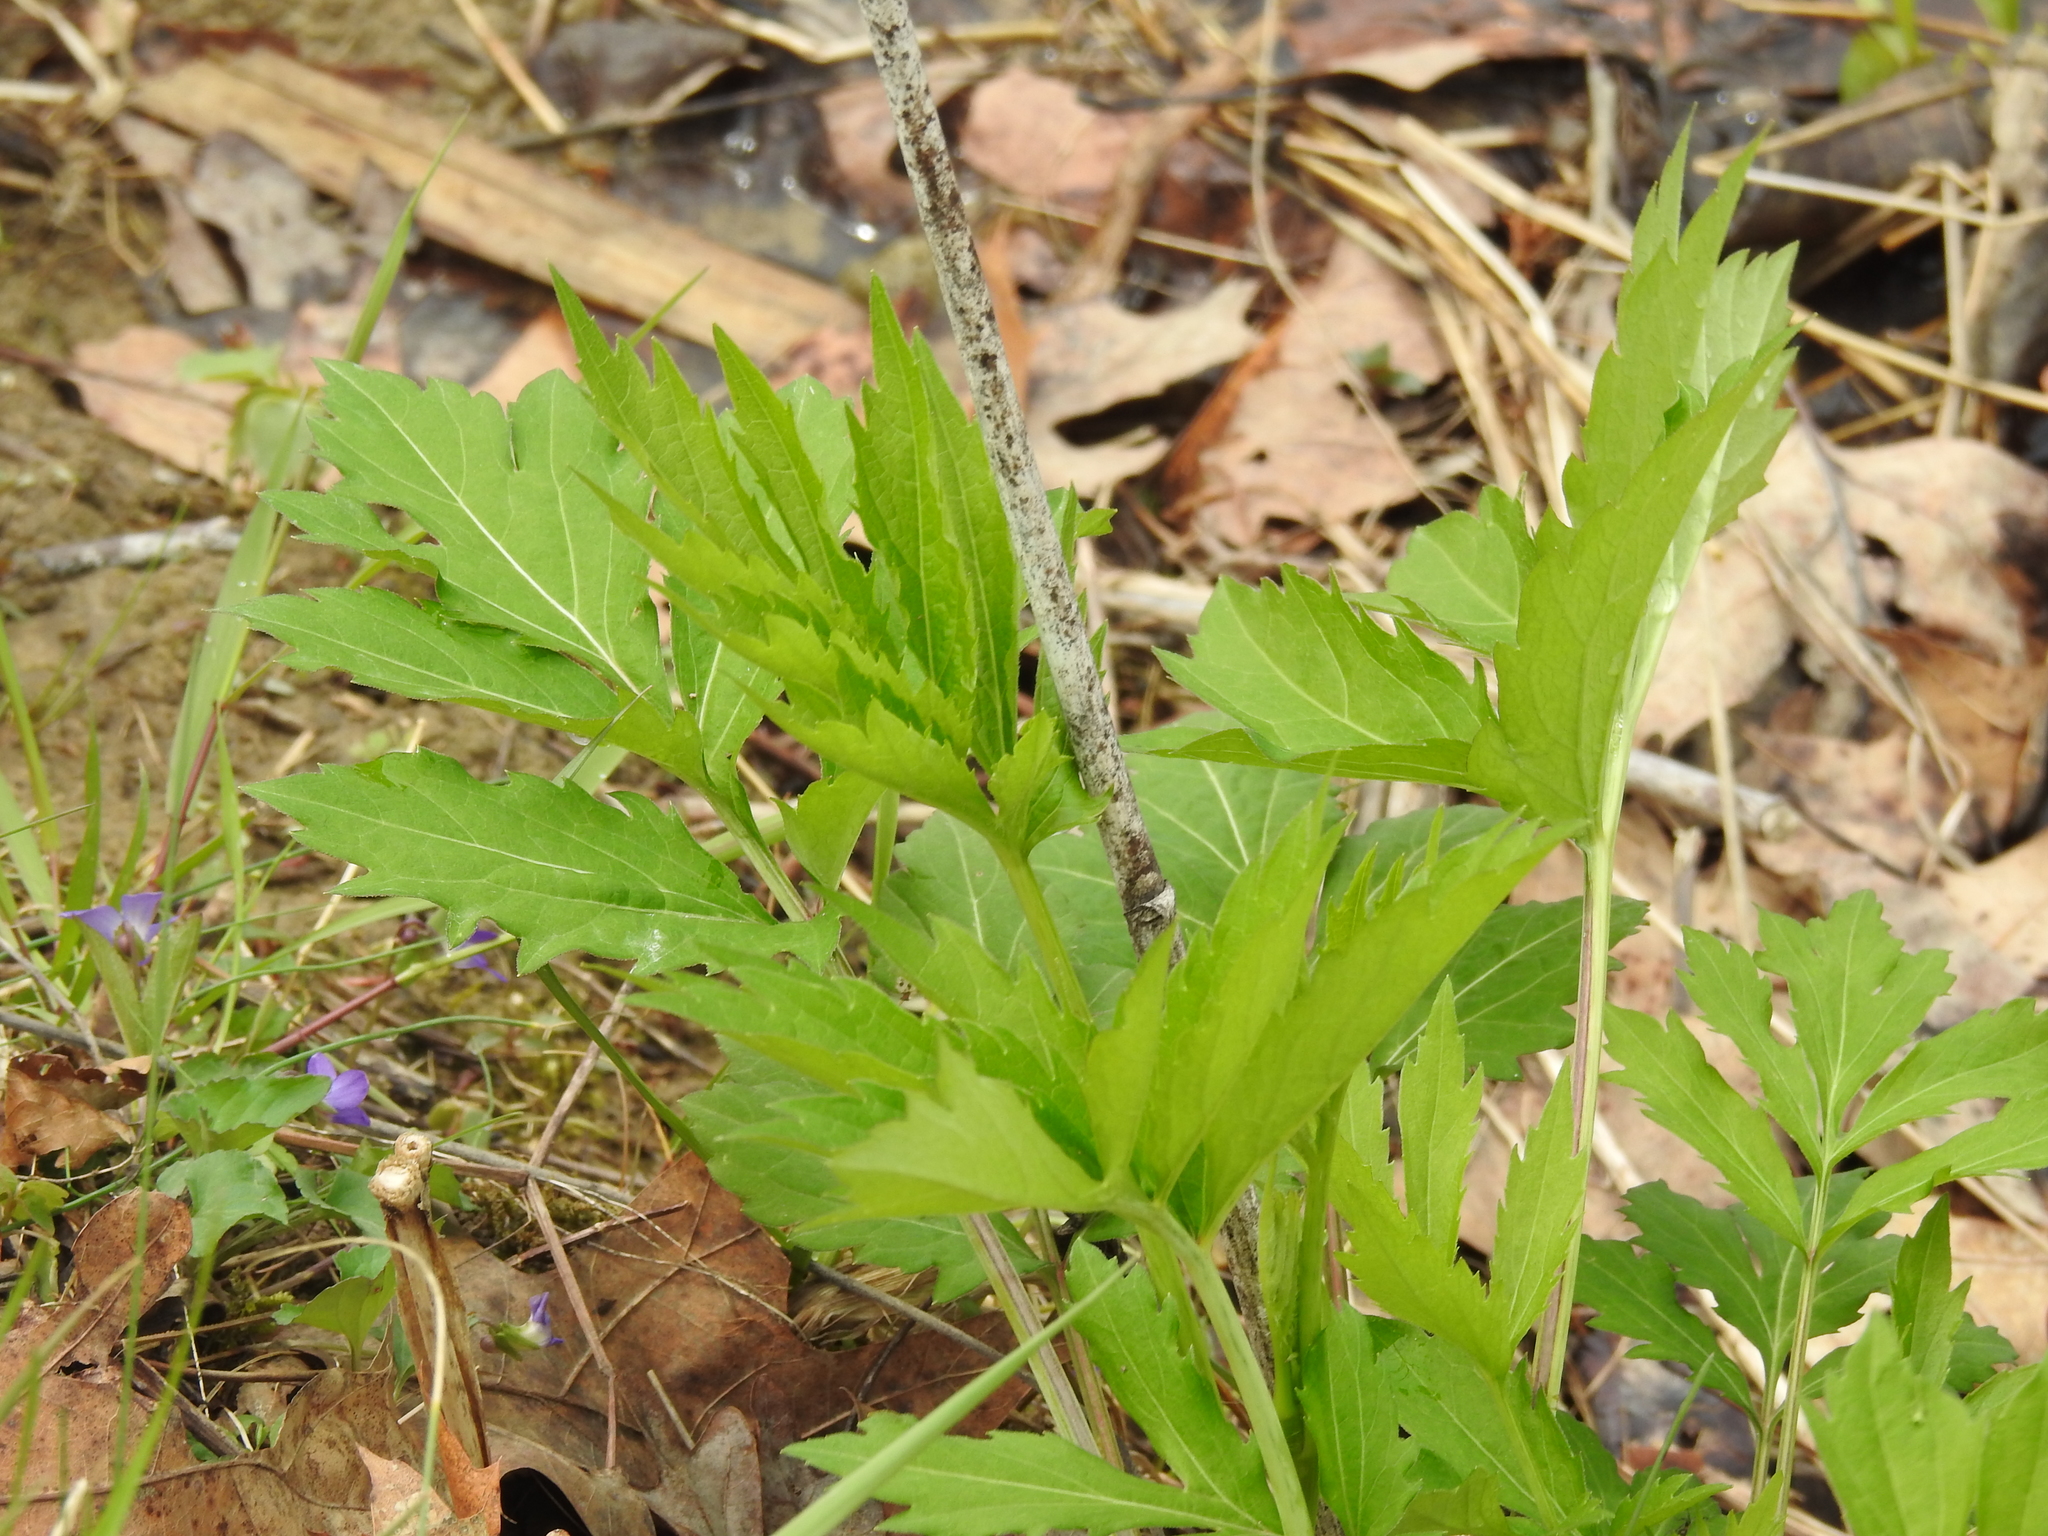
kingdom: Plantae
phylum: Tracheophyta
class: Magnoliopsida
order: Asterales
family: Asteraceae
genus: Rudbeckia
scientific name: Rudbeckia laciniata
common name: Coneflower
